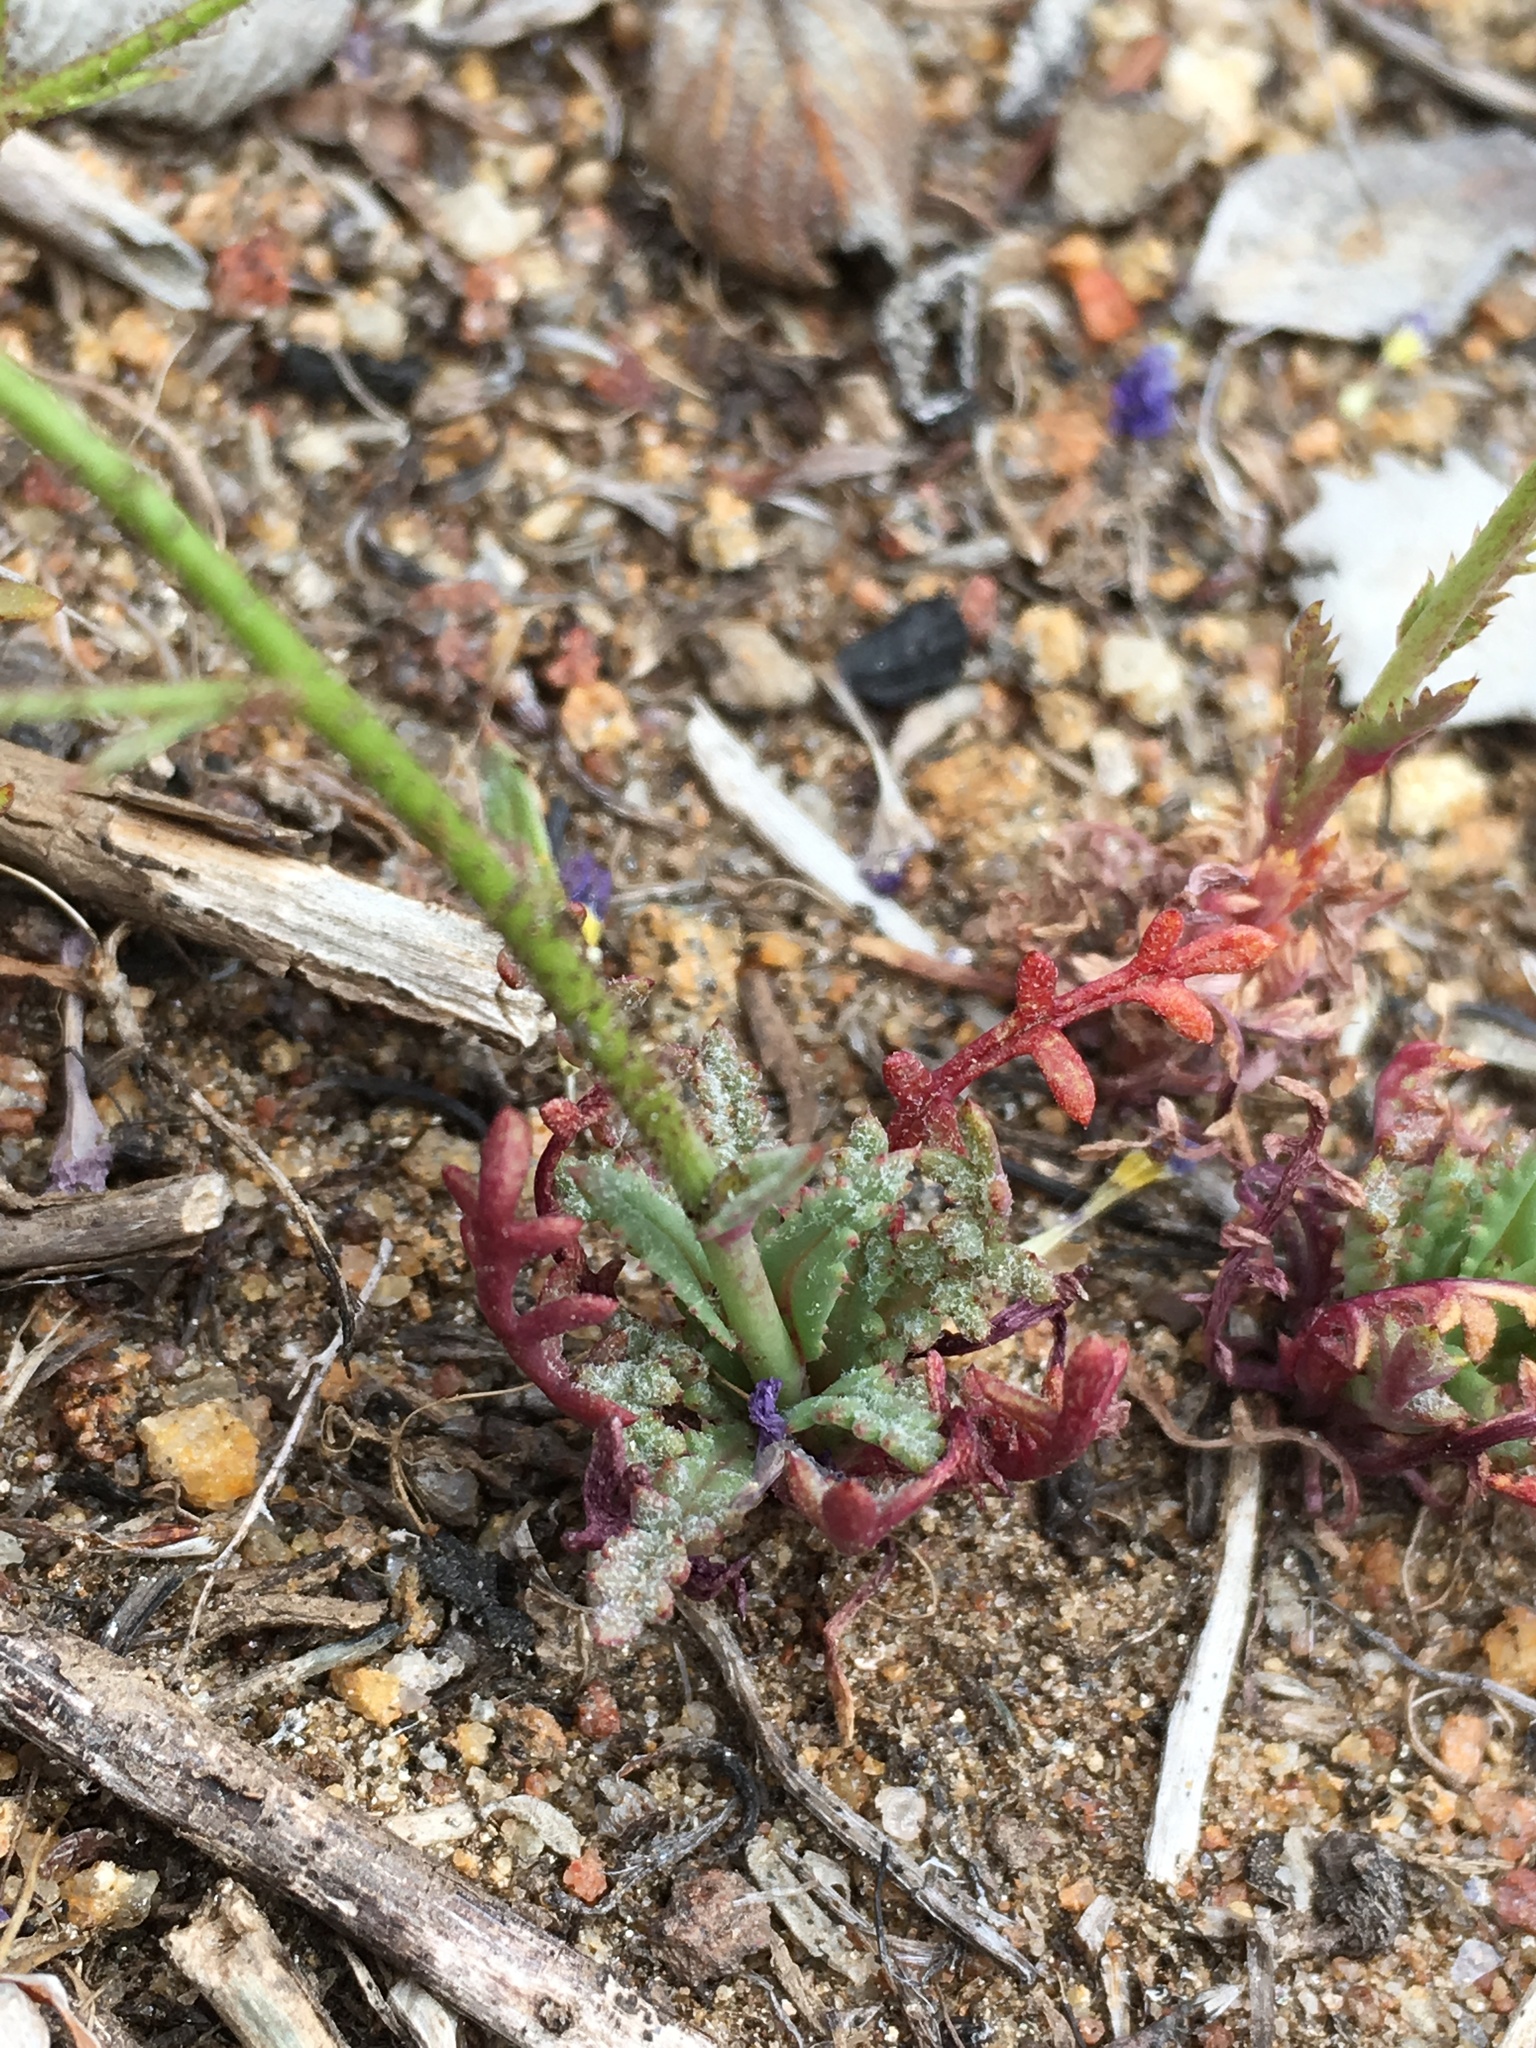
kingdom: Plantae
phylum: Tracheophyta
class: Magnoliopsida
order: Ericales
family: Polemoniaceae
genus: Gilia
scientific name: Gilia diegensis
